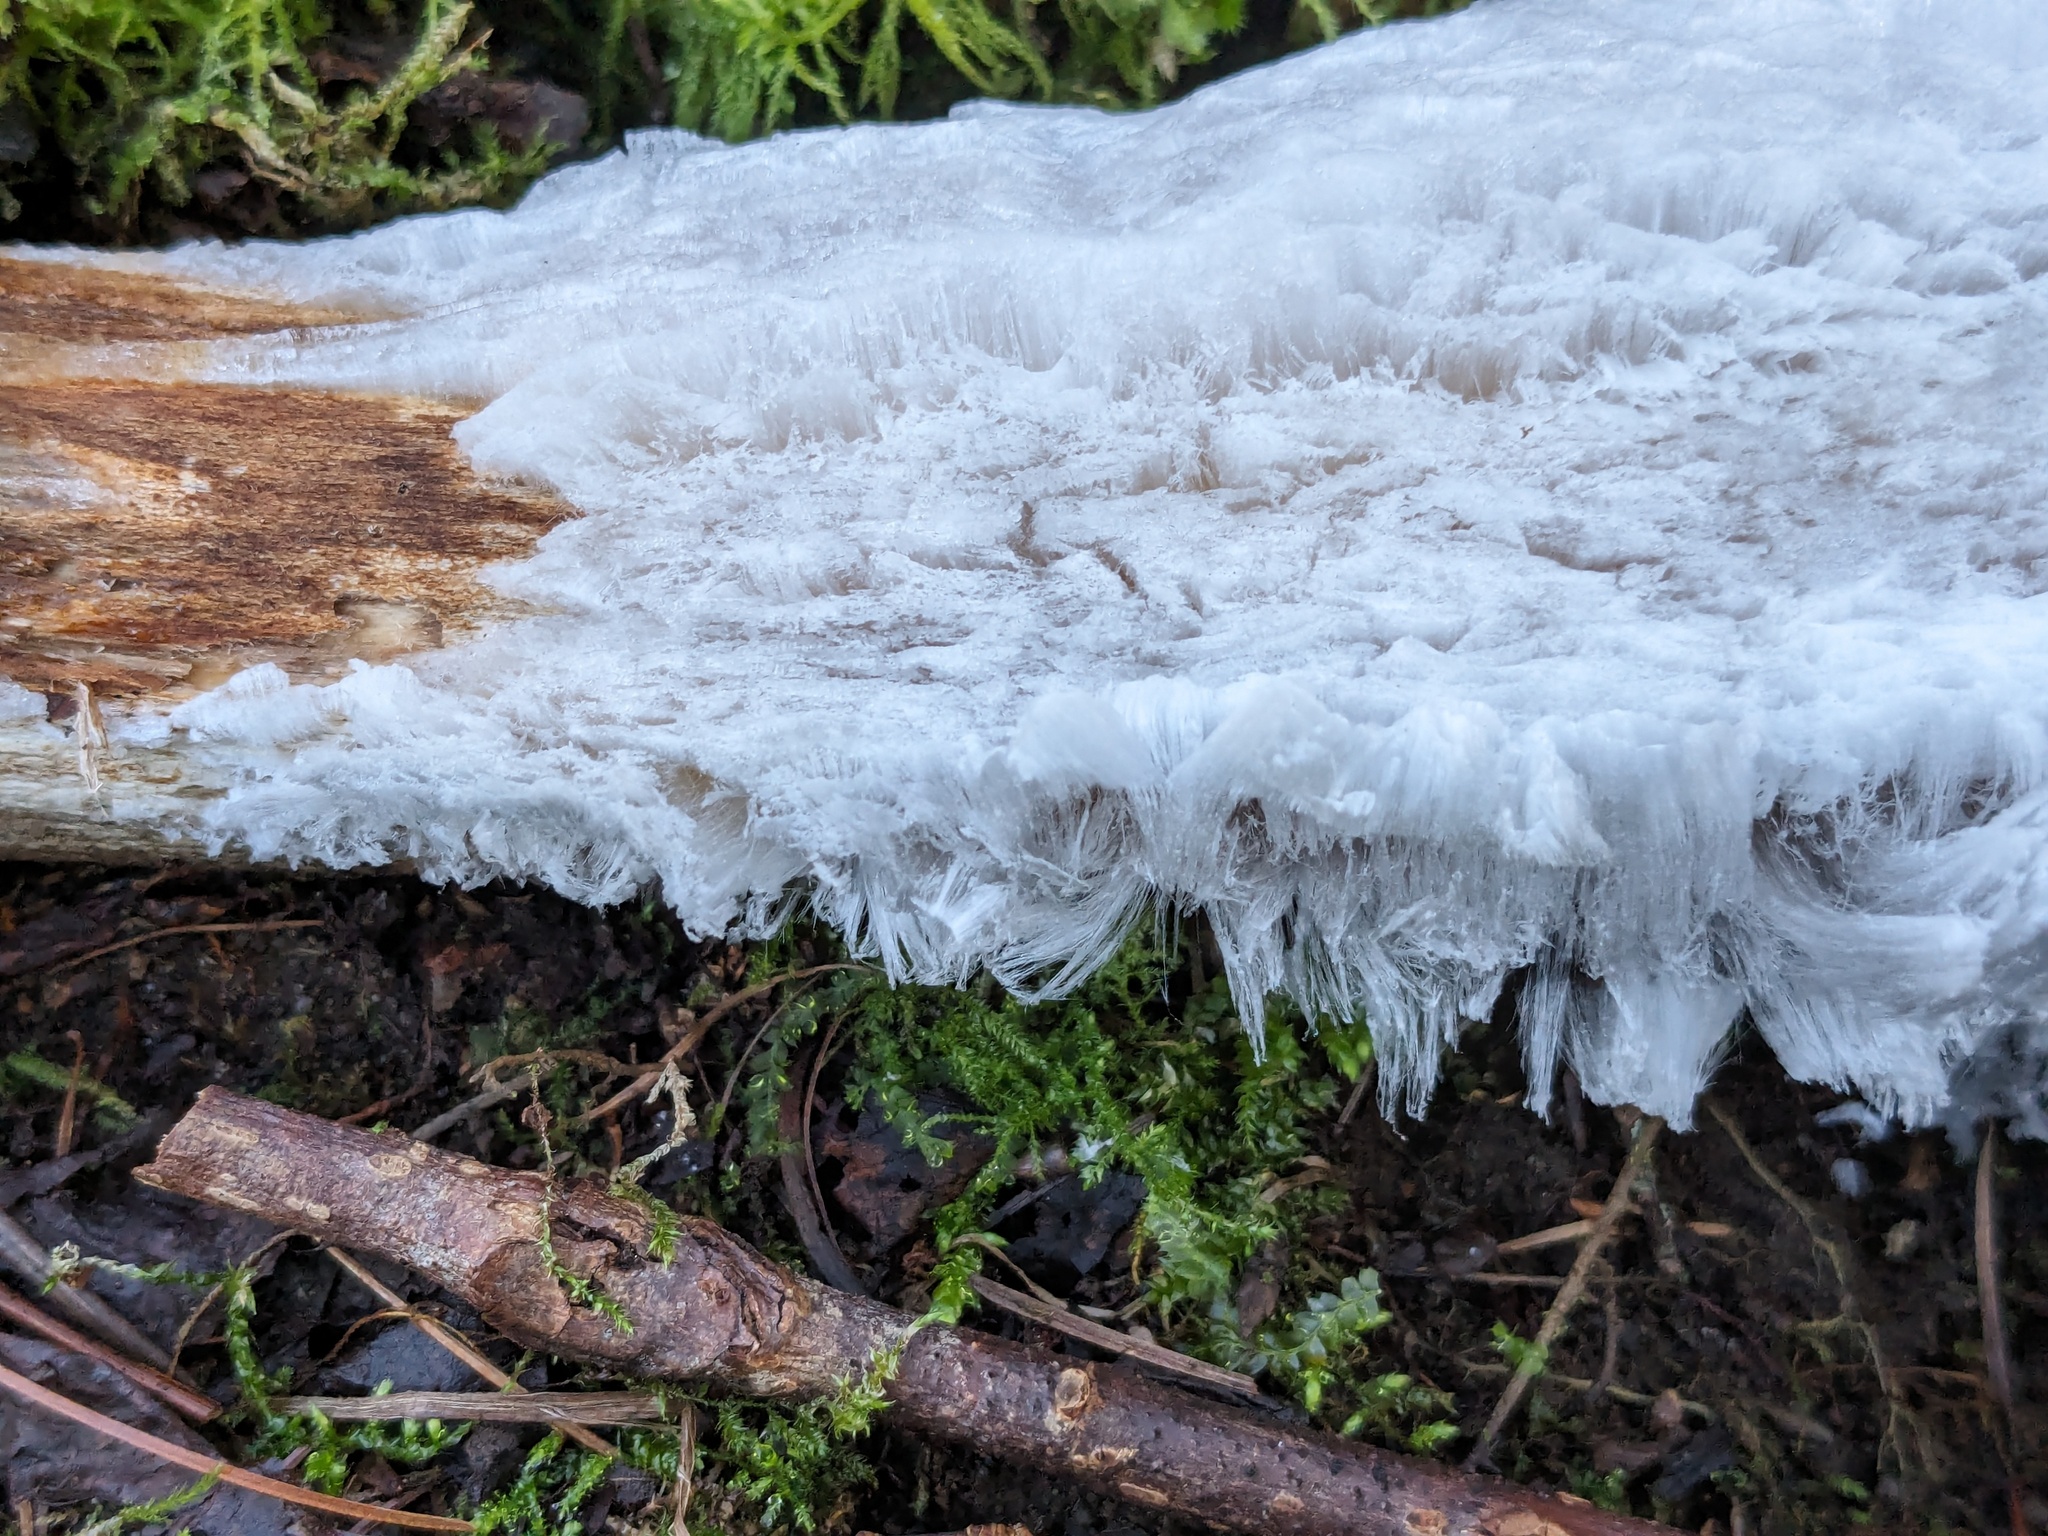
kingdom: Fungi
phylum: Basidiomycota
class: Agaricomycetes
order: Auriculariales
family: Auriculariaceae
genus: Exidiopsis
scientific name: Exidiopsis effusa
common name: Hair ice crust
